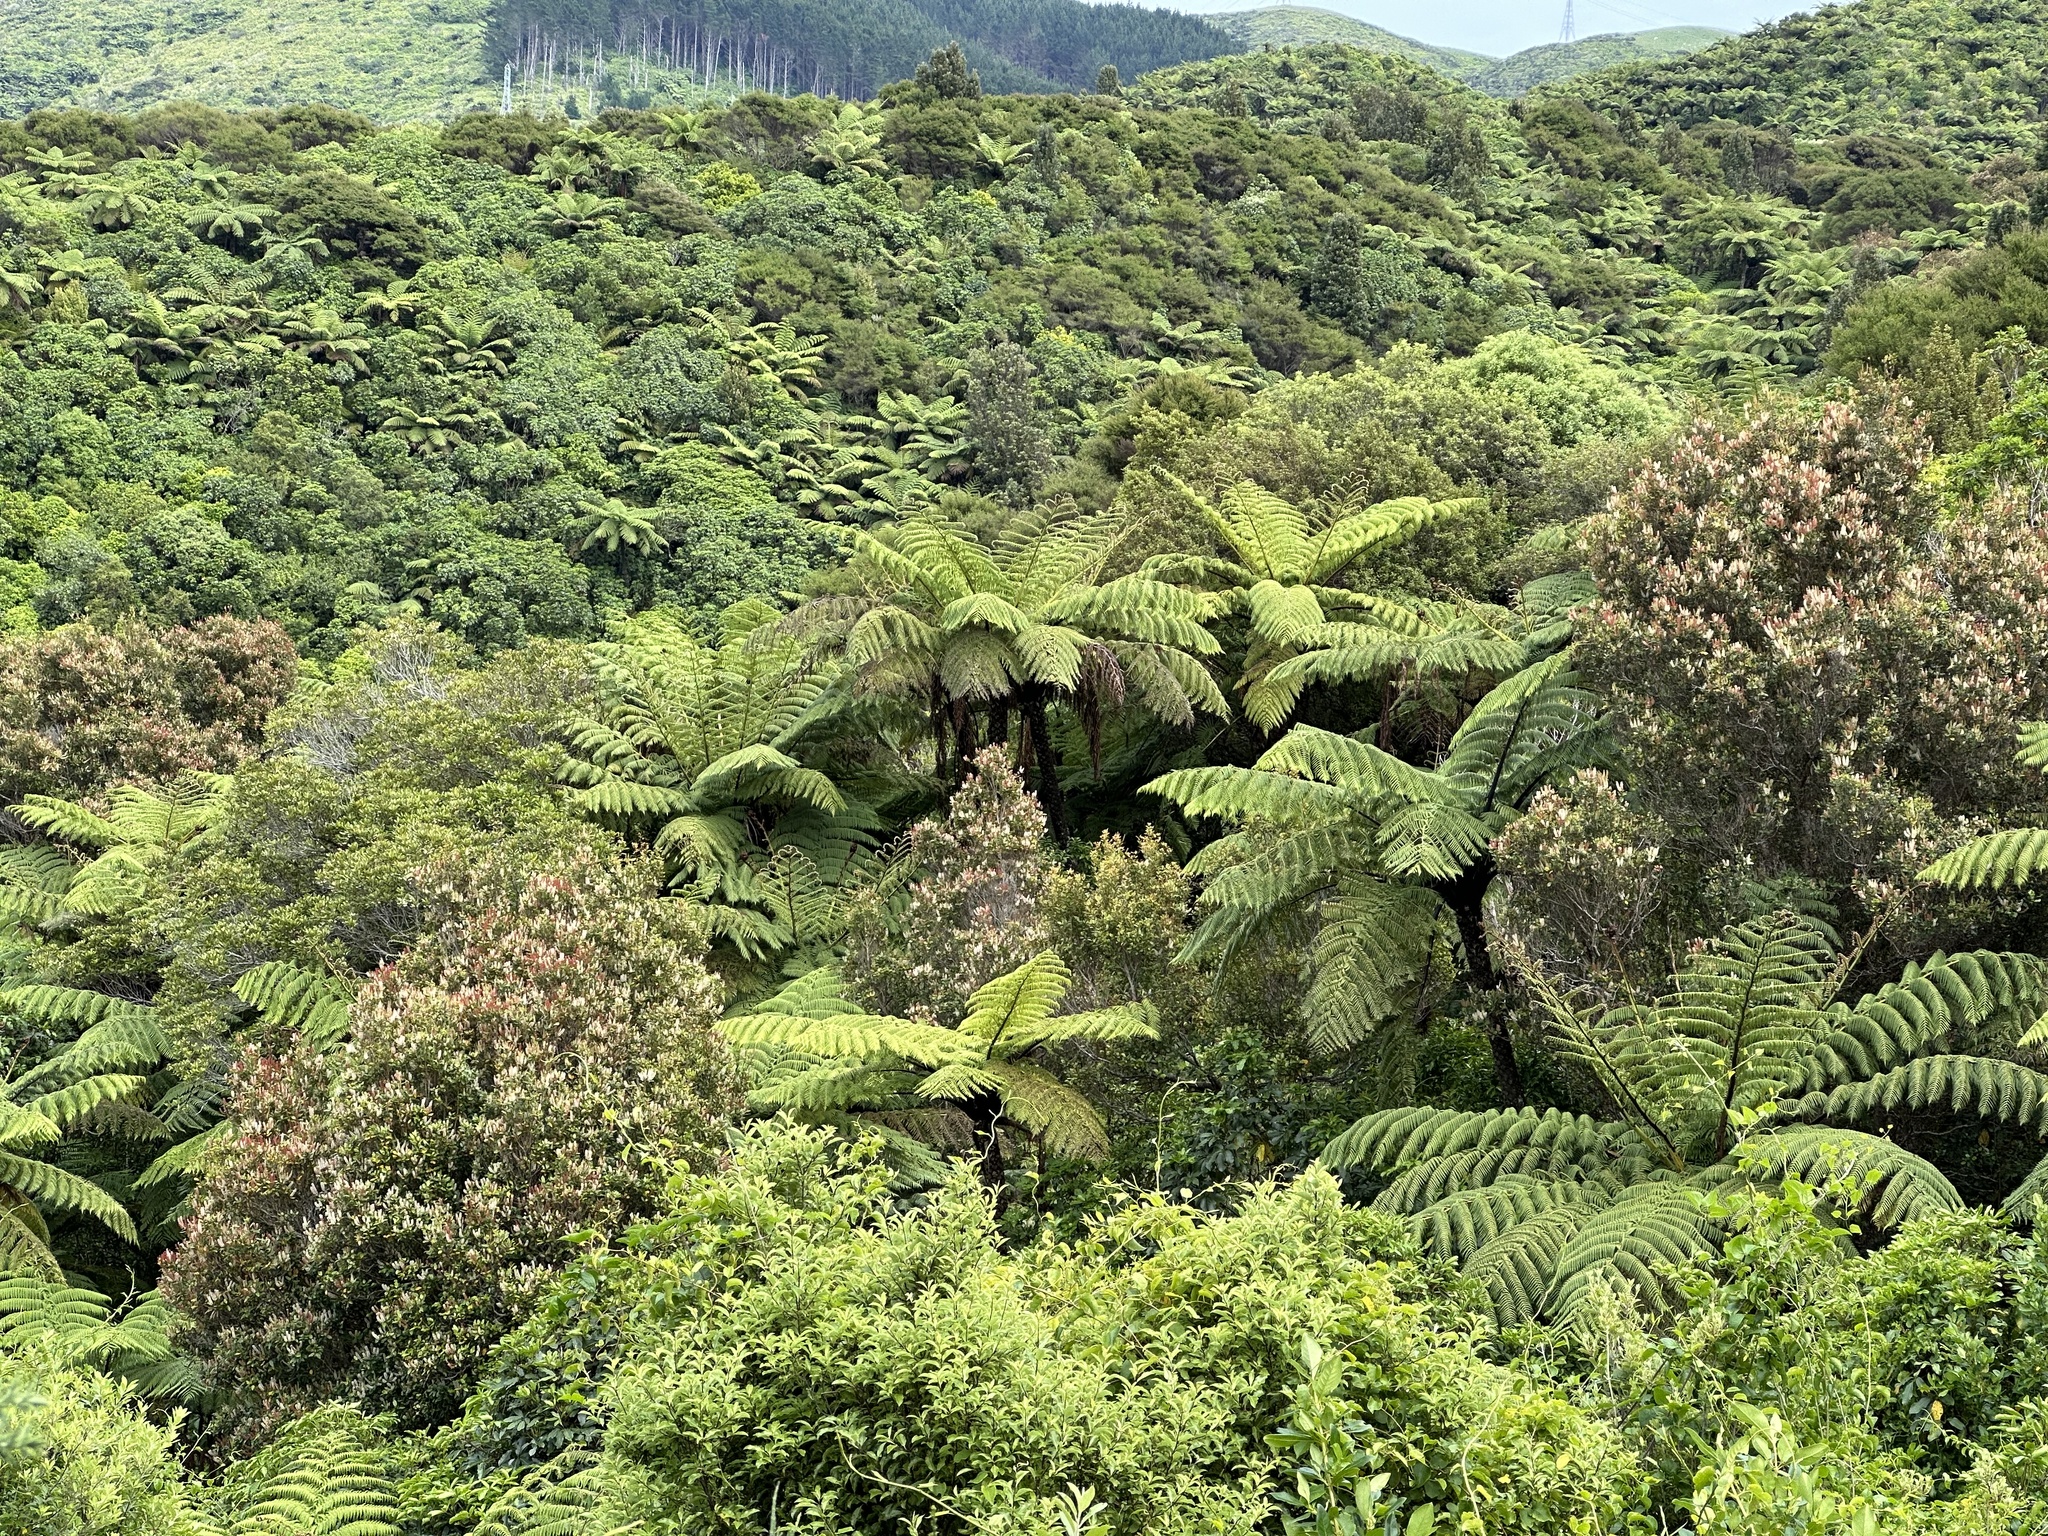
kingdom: Plantae
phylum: Tracheophyta
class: Magnoliopsida
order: Oxalidales
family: Cunoniaceae
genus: Pterophylla
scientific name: Pterophylla racemosa
